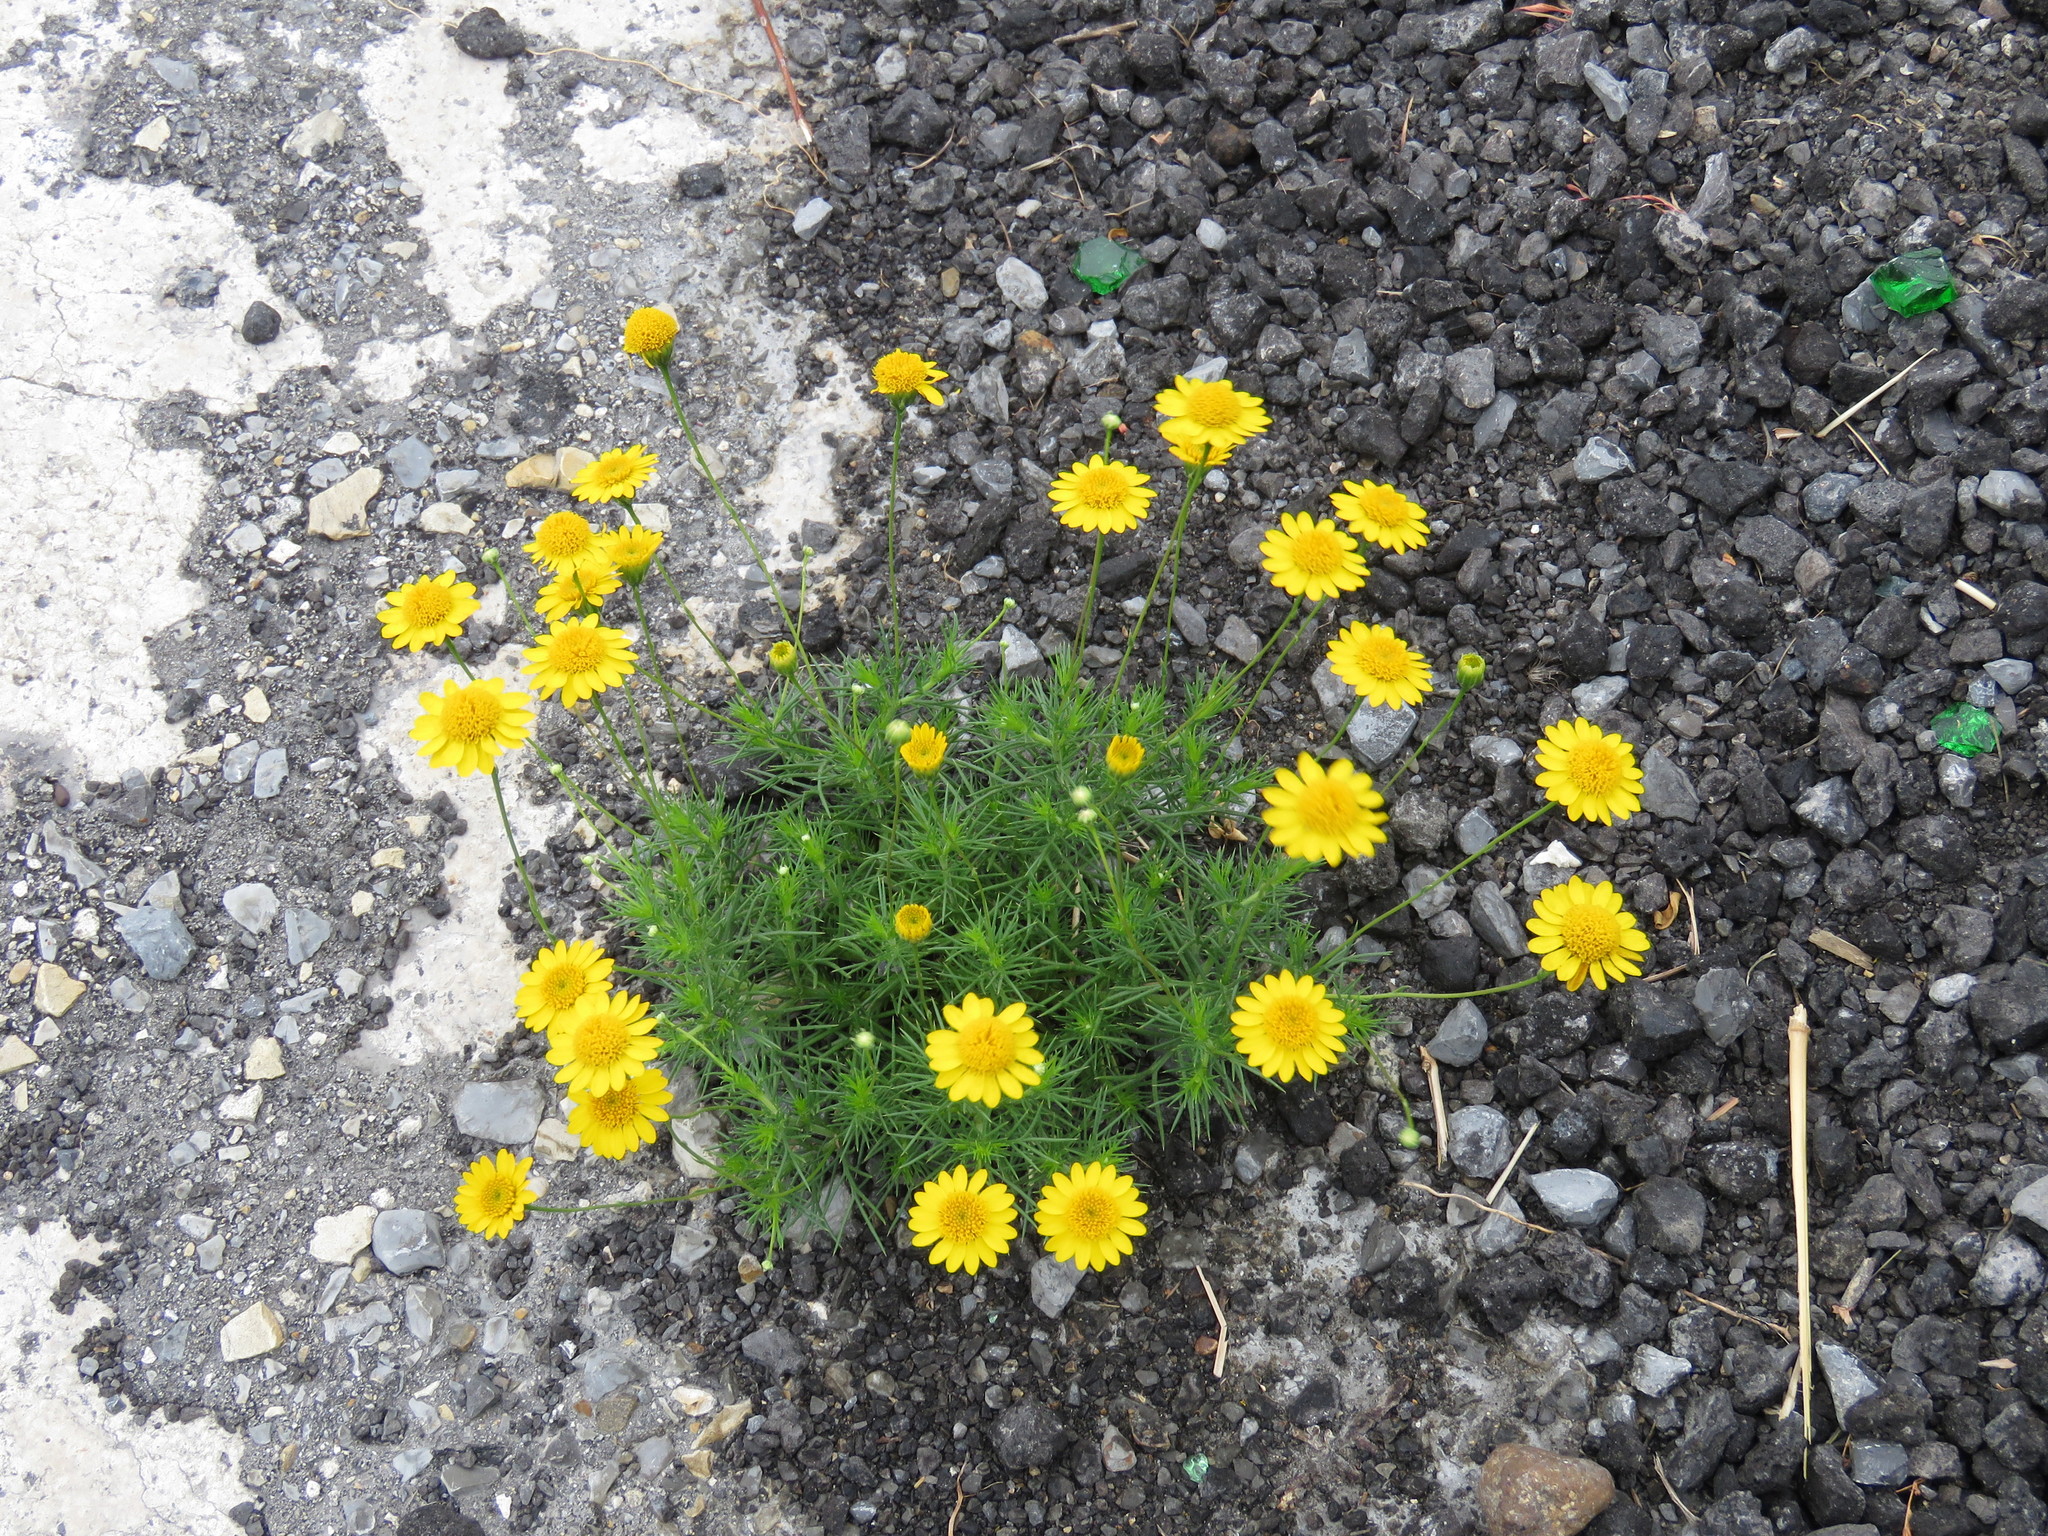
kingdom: Plantae
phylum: Tracheophyta
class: Magnoliopsida
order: Asterales
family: Asteraceae
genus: Thymophylla
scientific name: Thymophylla pentachaeta
